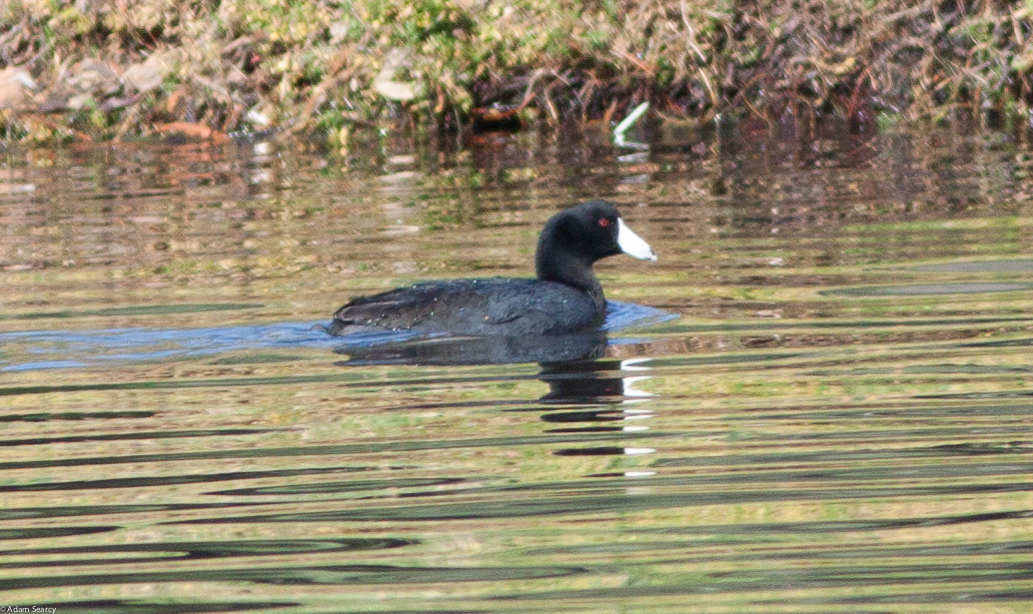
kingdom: Animalia
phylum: Chordata
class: Aves
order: Gruiformes
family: Rallidae
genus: Fulica
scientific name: Fulica americana
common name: American coot
